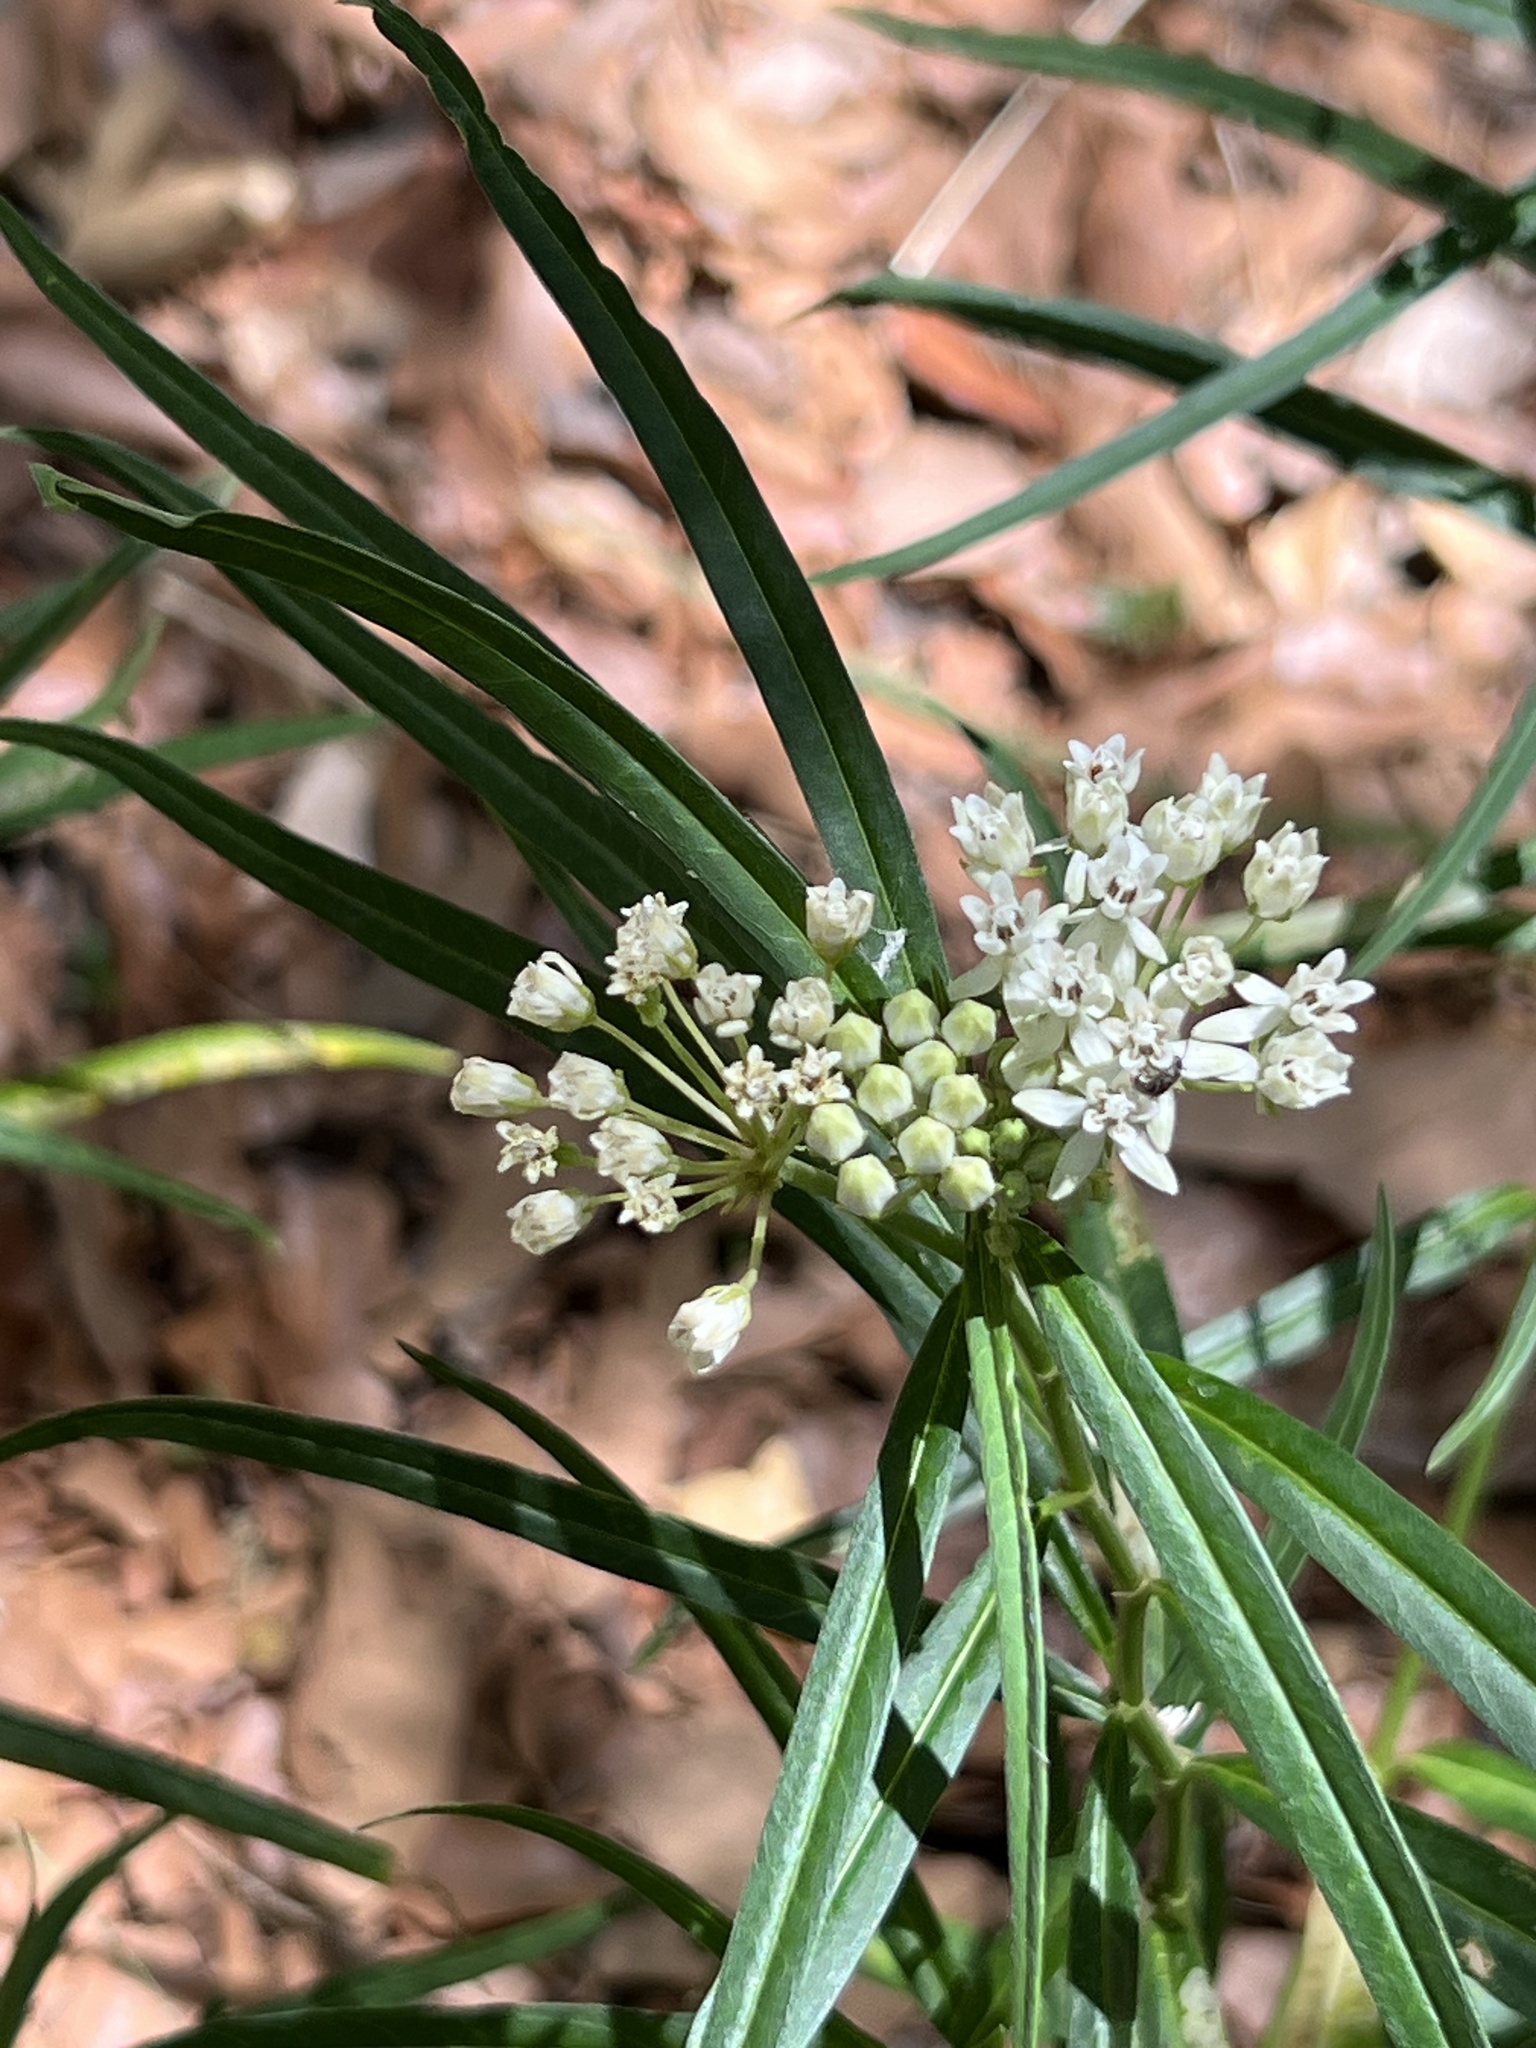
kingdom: Plantae
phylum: Tracheophyta
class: Magnoliopsida
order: Gentianales
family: Apocynaceae
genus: Asclepias
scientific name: Asclepias angustifolia
